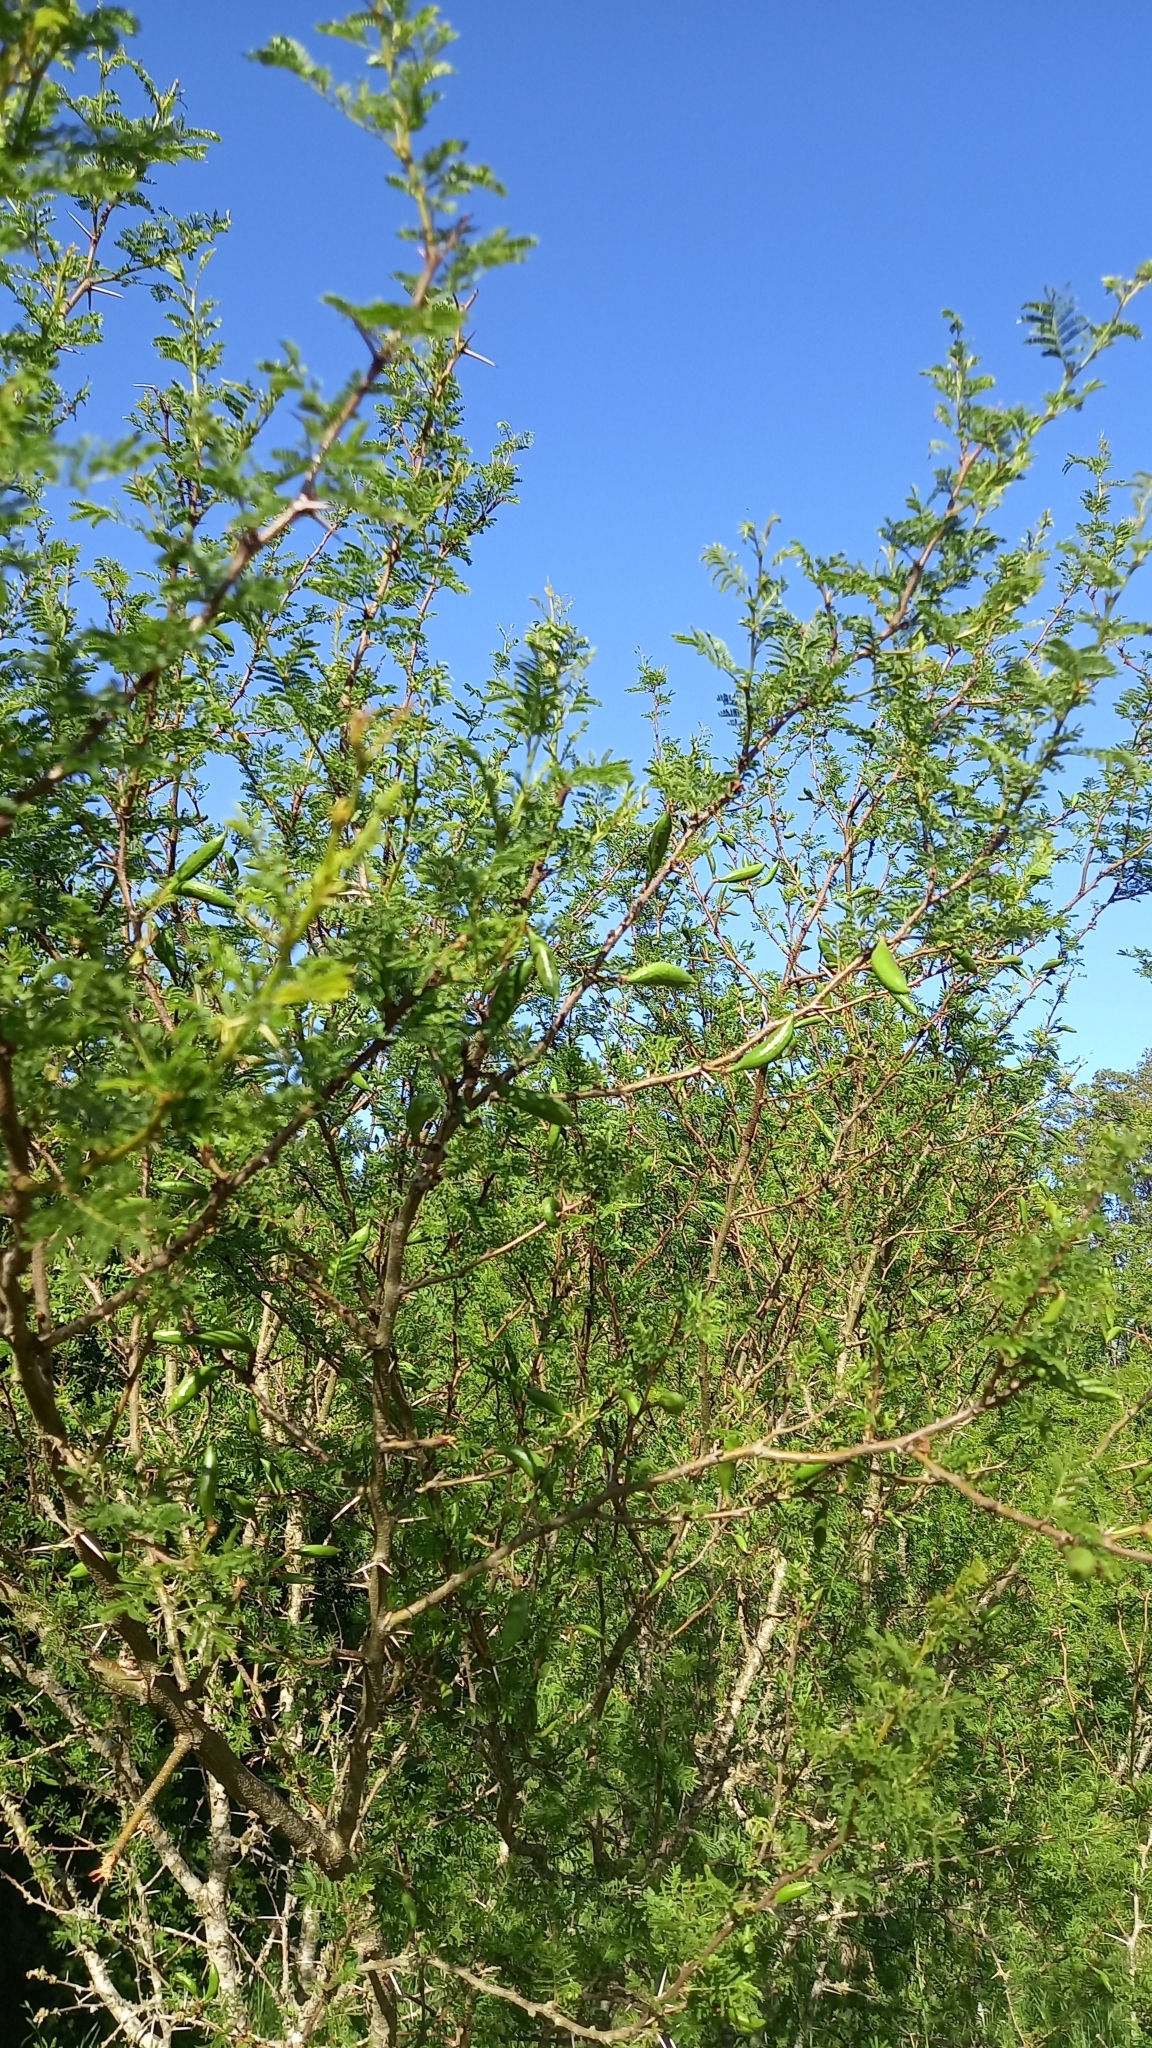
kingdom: Plantae
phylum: Tracheophyta
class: Magnoliopsida
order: Fabales
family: Fabaceae
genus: Vachellia
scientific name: Vachellia caven
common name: Roman cassie
